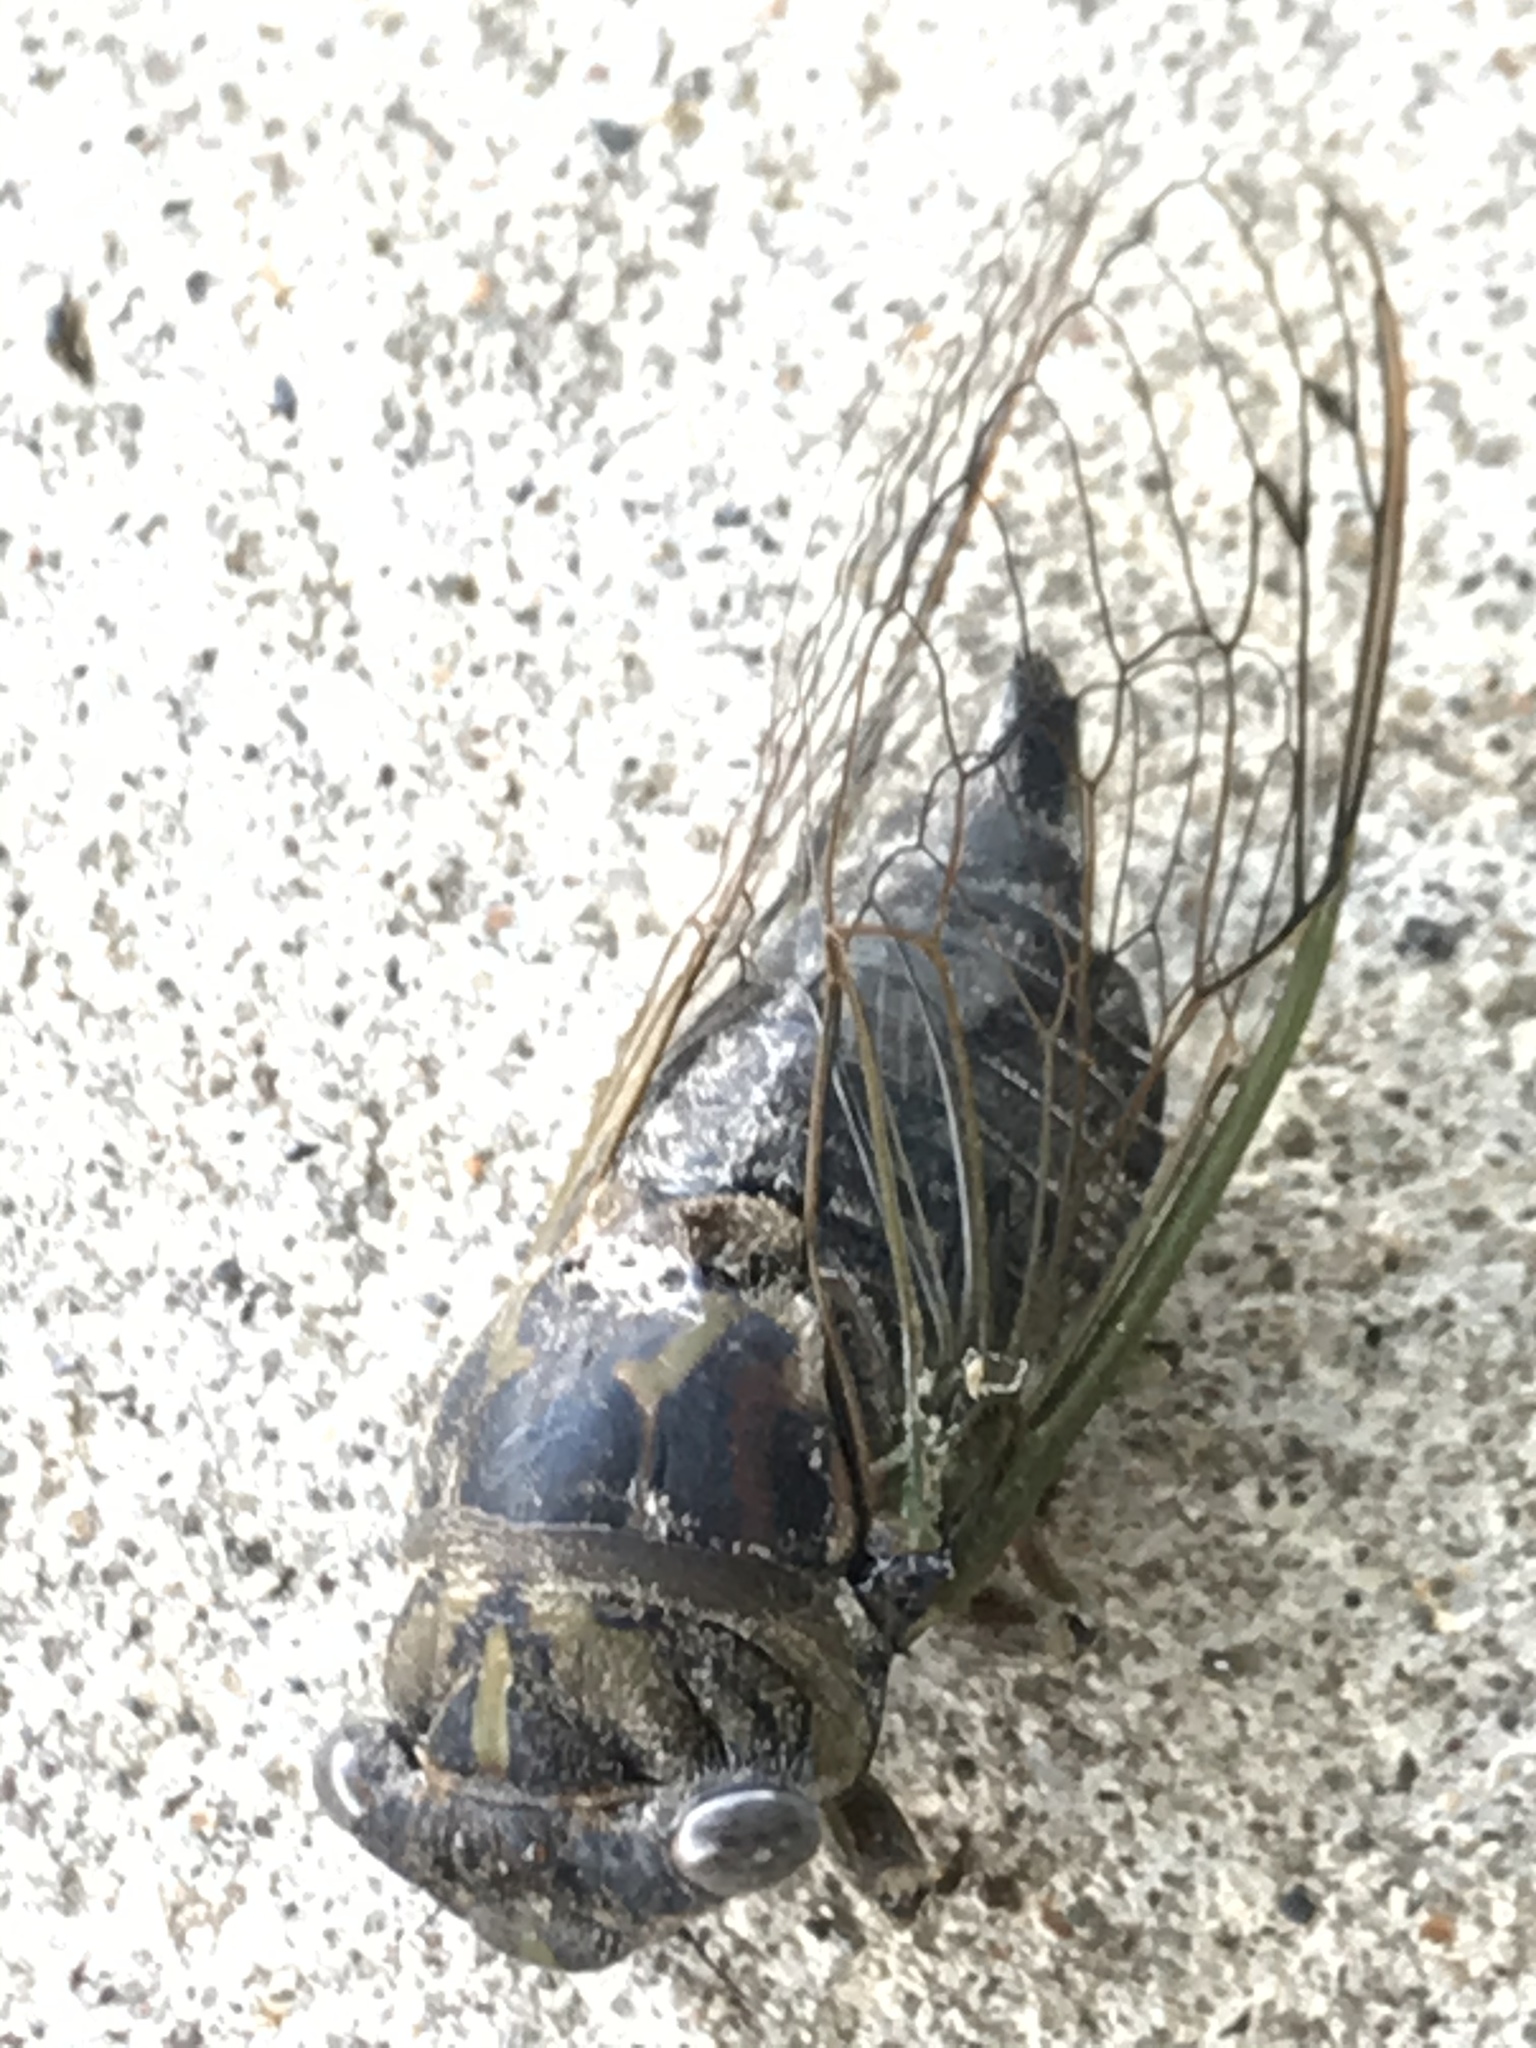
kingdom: Animalia
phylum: Arthropoda
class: Insecta
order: Hemiptera
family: Cicadidae
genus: Neotibicen
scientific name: Neotibicen canicularis
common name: God-day cicada
